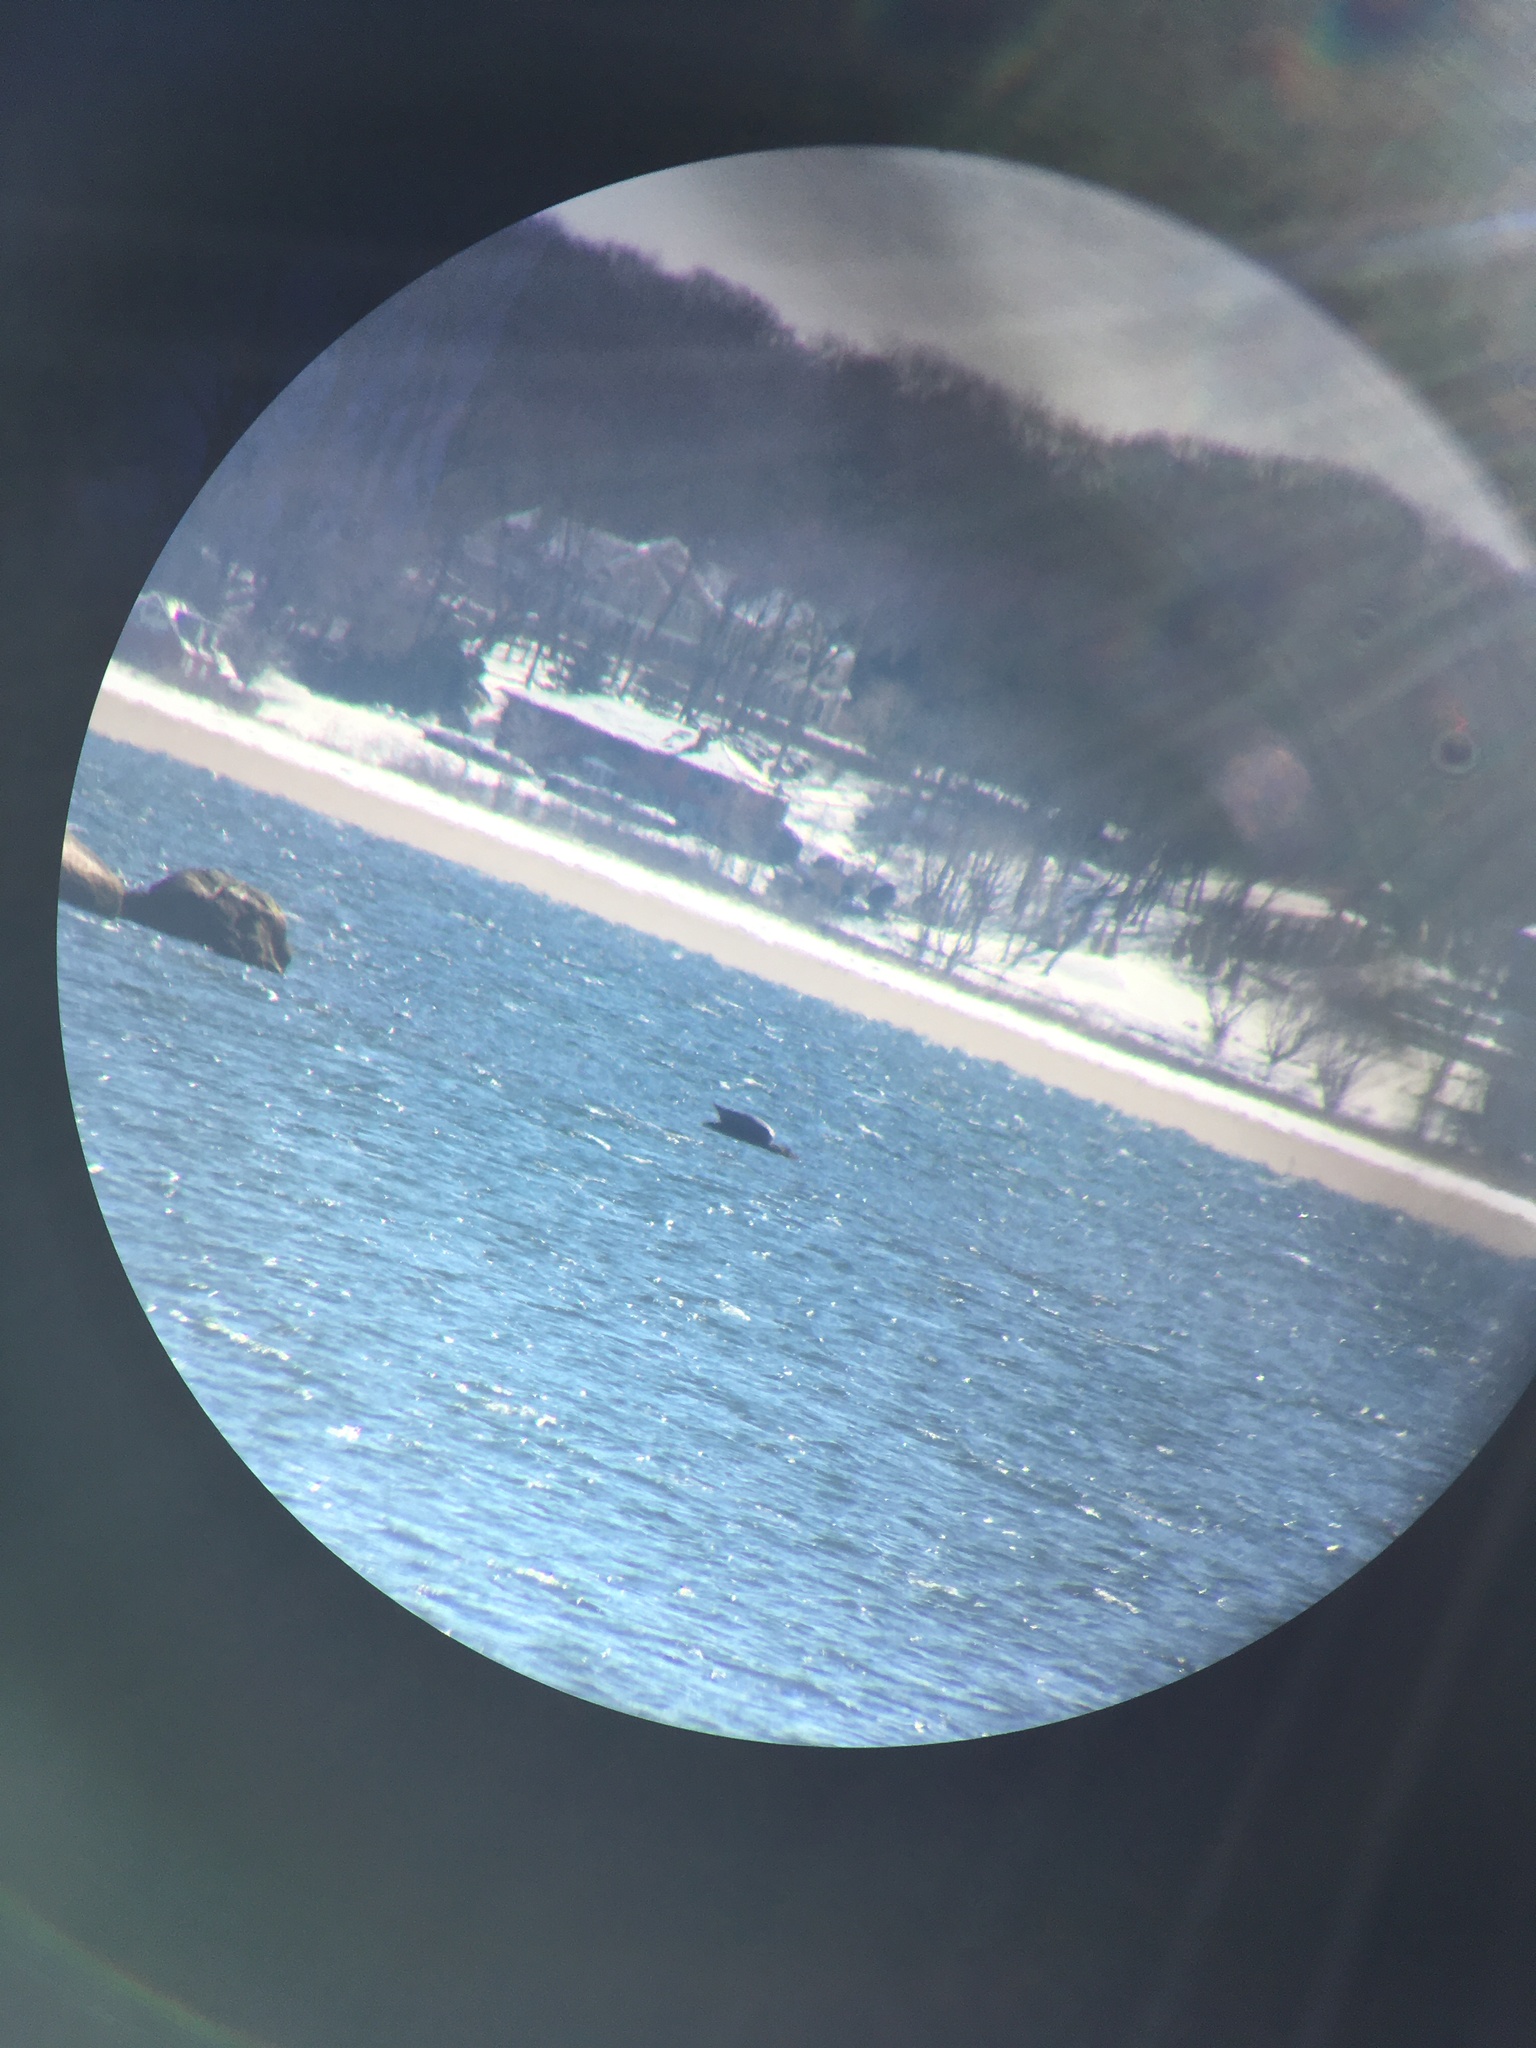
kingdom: Animalia
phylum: Chordata
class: Mammalia
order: Carnivora
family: Phocidae
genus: Phoca
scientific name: Phoca vitulina
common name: Harbor seal
